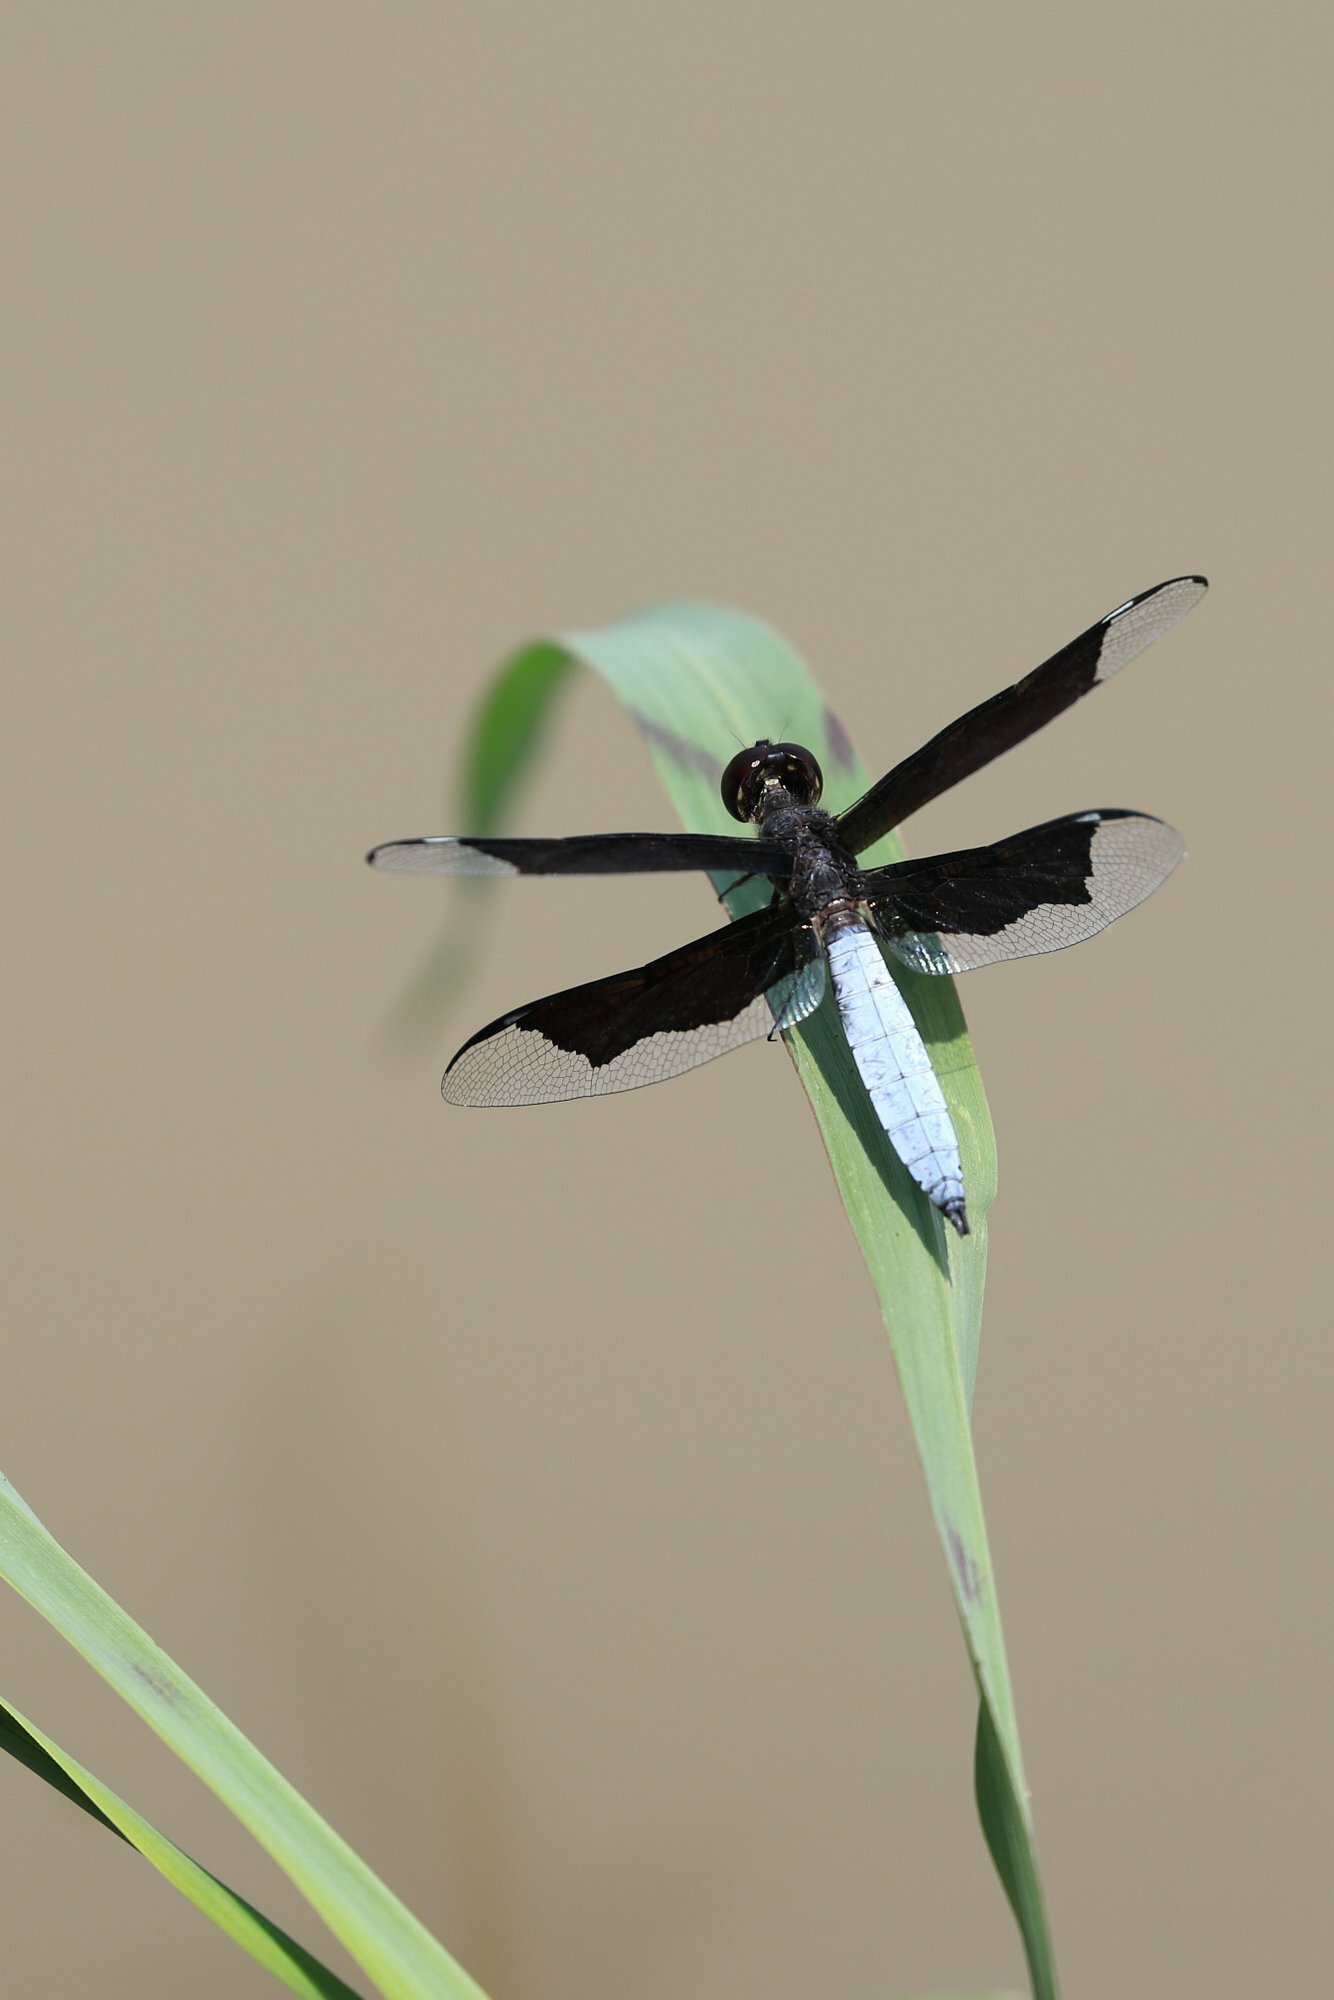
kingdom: Animalia
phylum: Arthropoda
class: Insecta
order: Odonata
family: Libellulidae
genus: Palpopleura
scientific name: Palpopleura lucia
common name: Lucia widow
